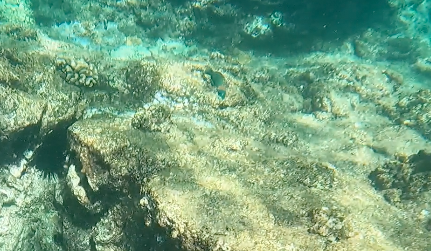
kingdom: Animalia
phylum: Chordata
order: Perciformes
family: Labridae
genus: Thalassoma
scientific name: Thalassoma duperrey
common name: Saddle wrasse
